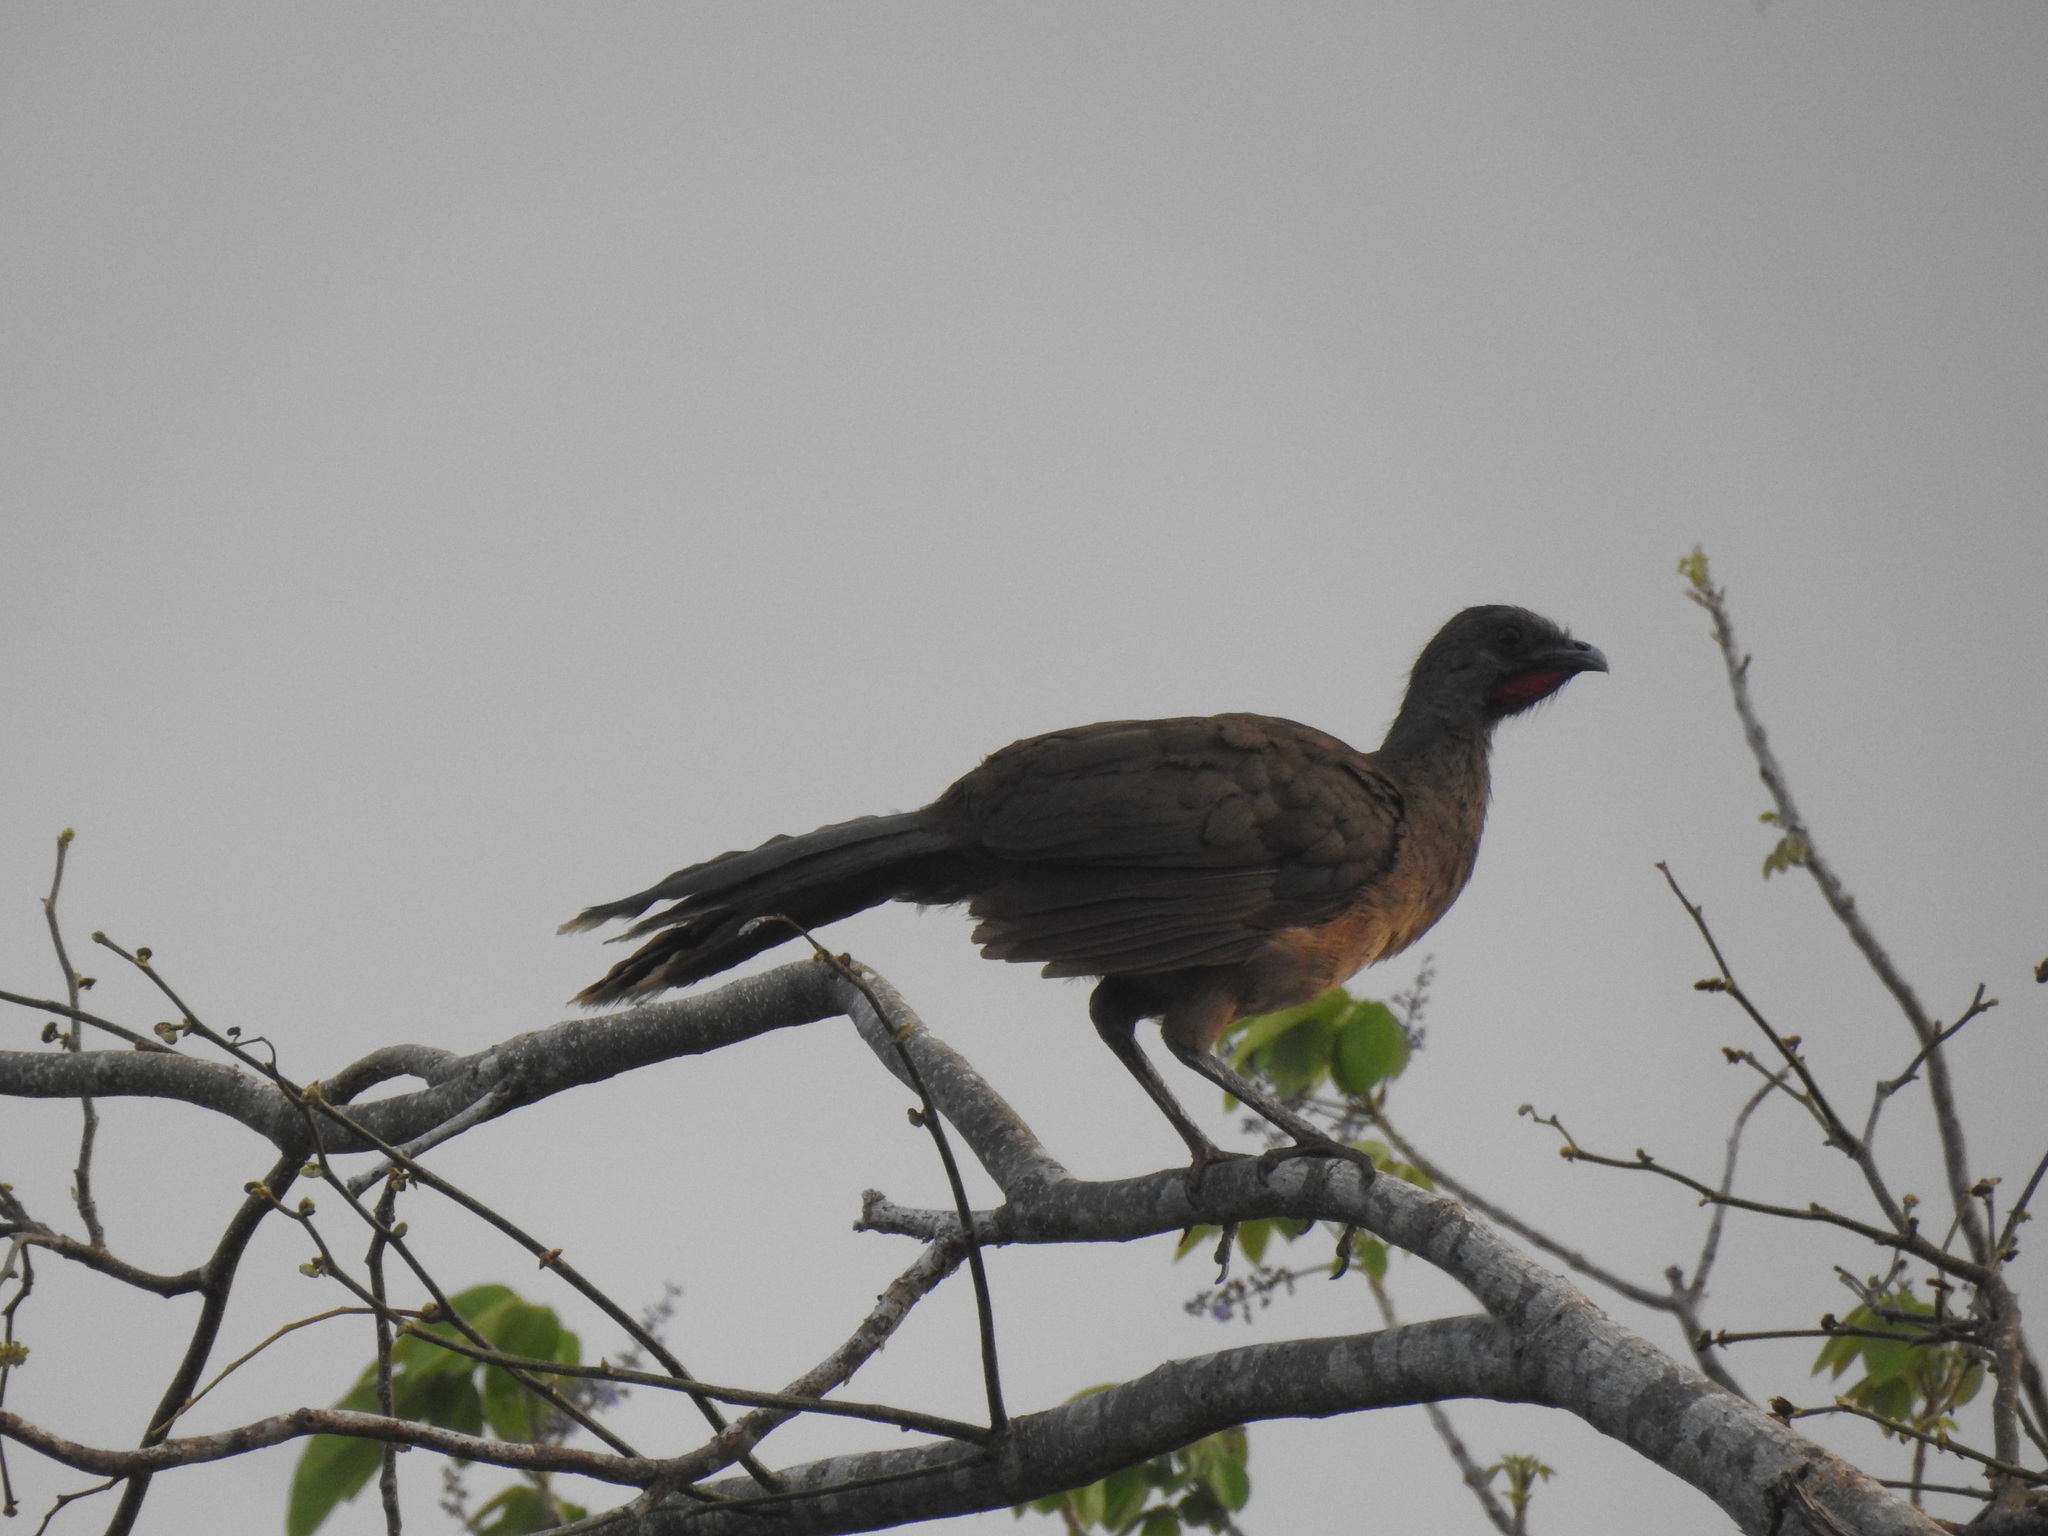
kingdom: Animalia
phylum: Chordata
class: Aves
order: Galliformes
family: Cracidae
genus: Ortalis
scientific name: Ortalis vetula
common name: Plain chachalaca
